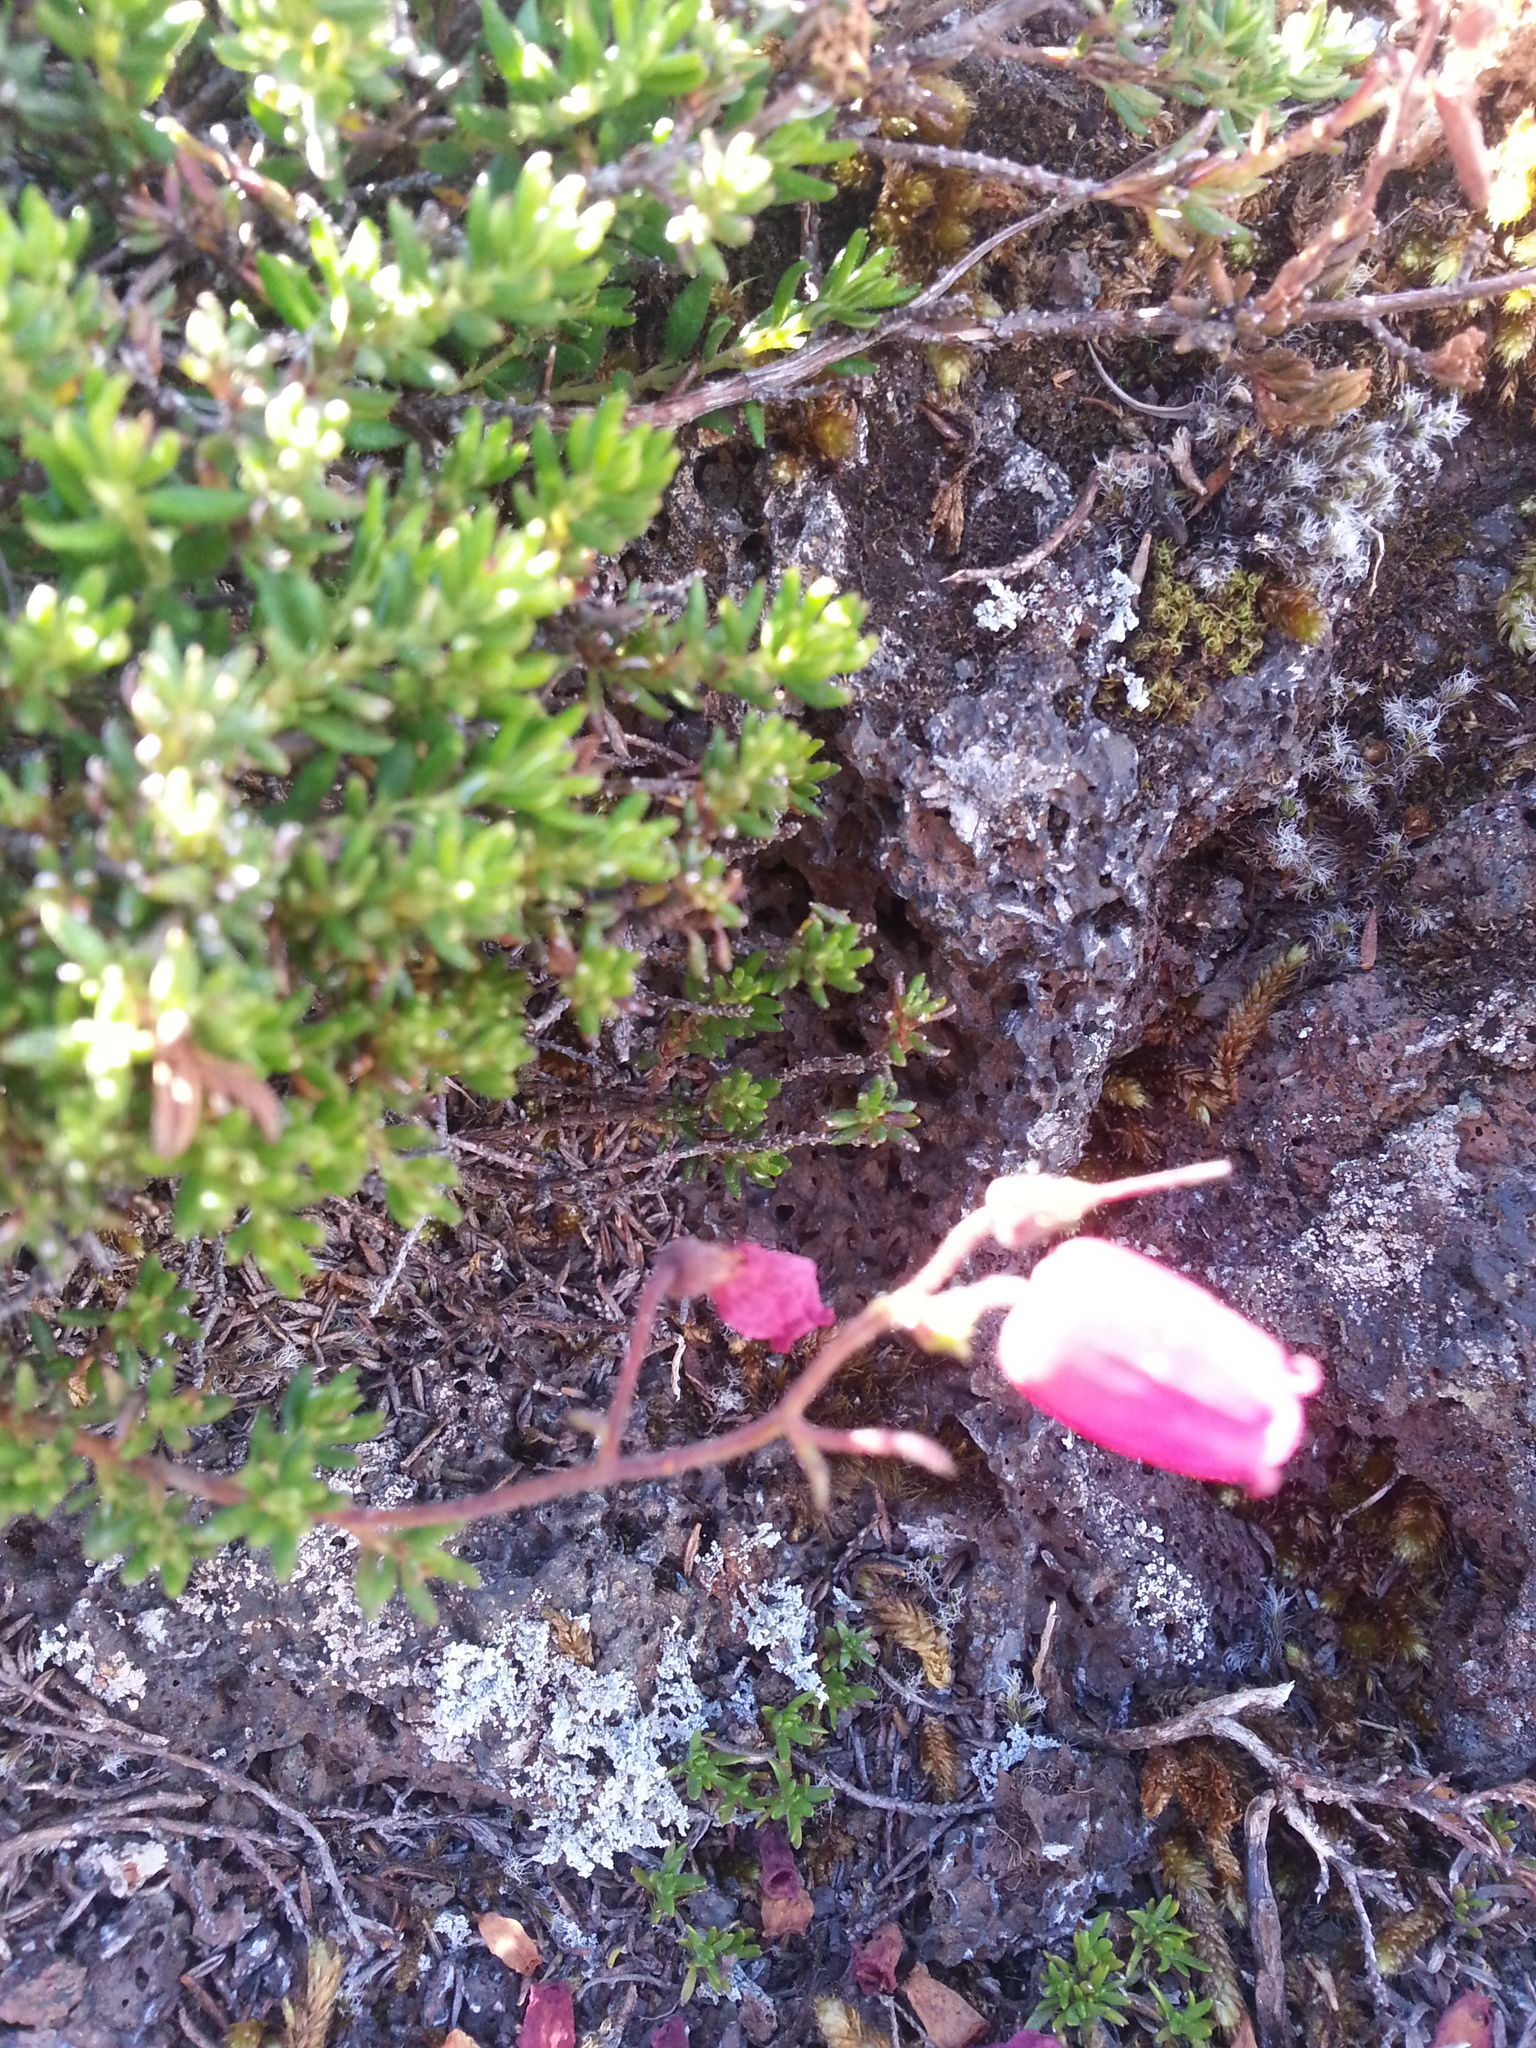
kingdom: Plantae
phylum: Tracheophyta
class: Magnoliopsida
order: Ericales
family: Ericaceae
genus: Daboecia
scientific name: Daboecia cantabrica
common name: St. dabeoc's-heath
